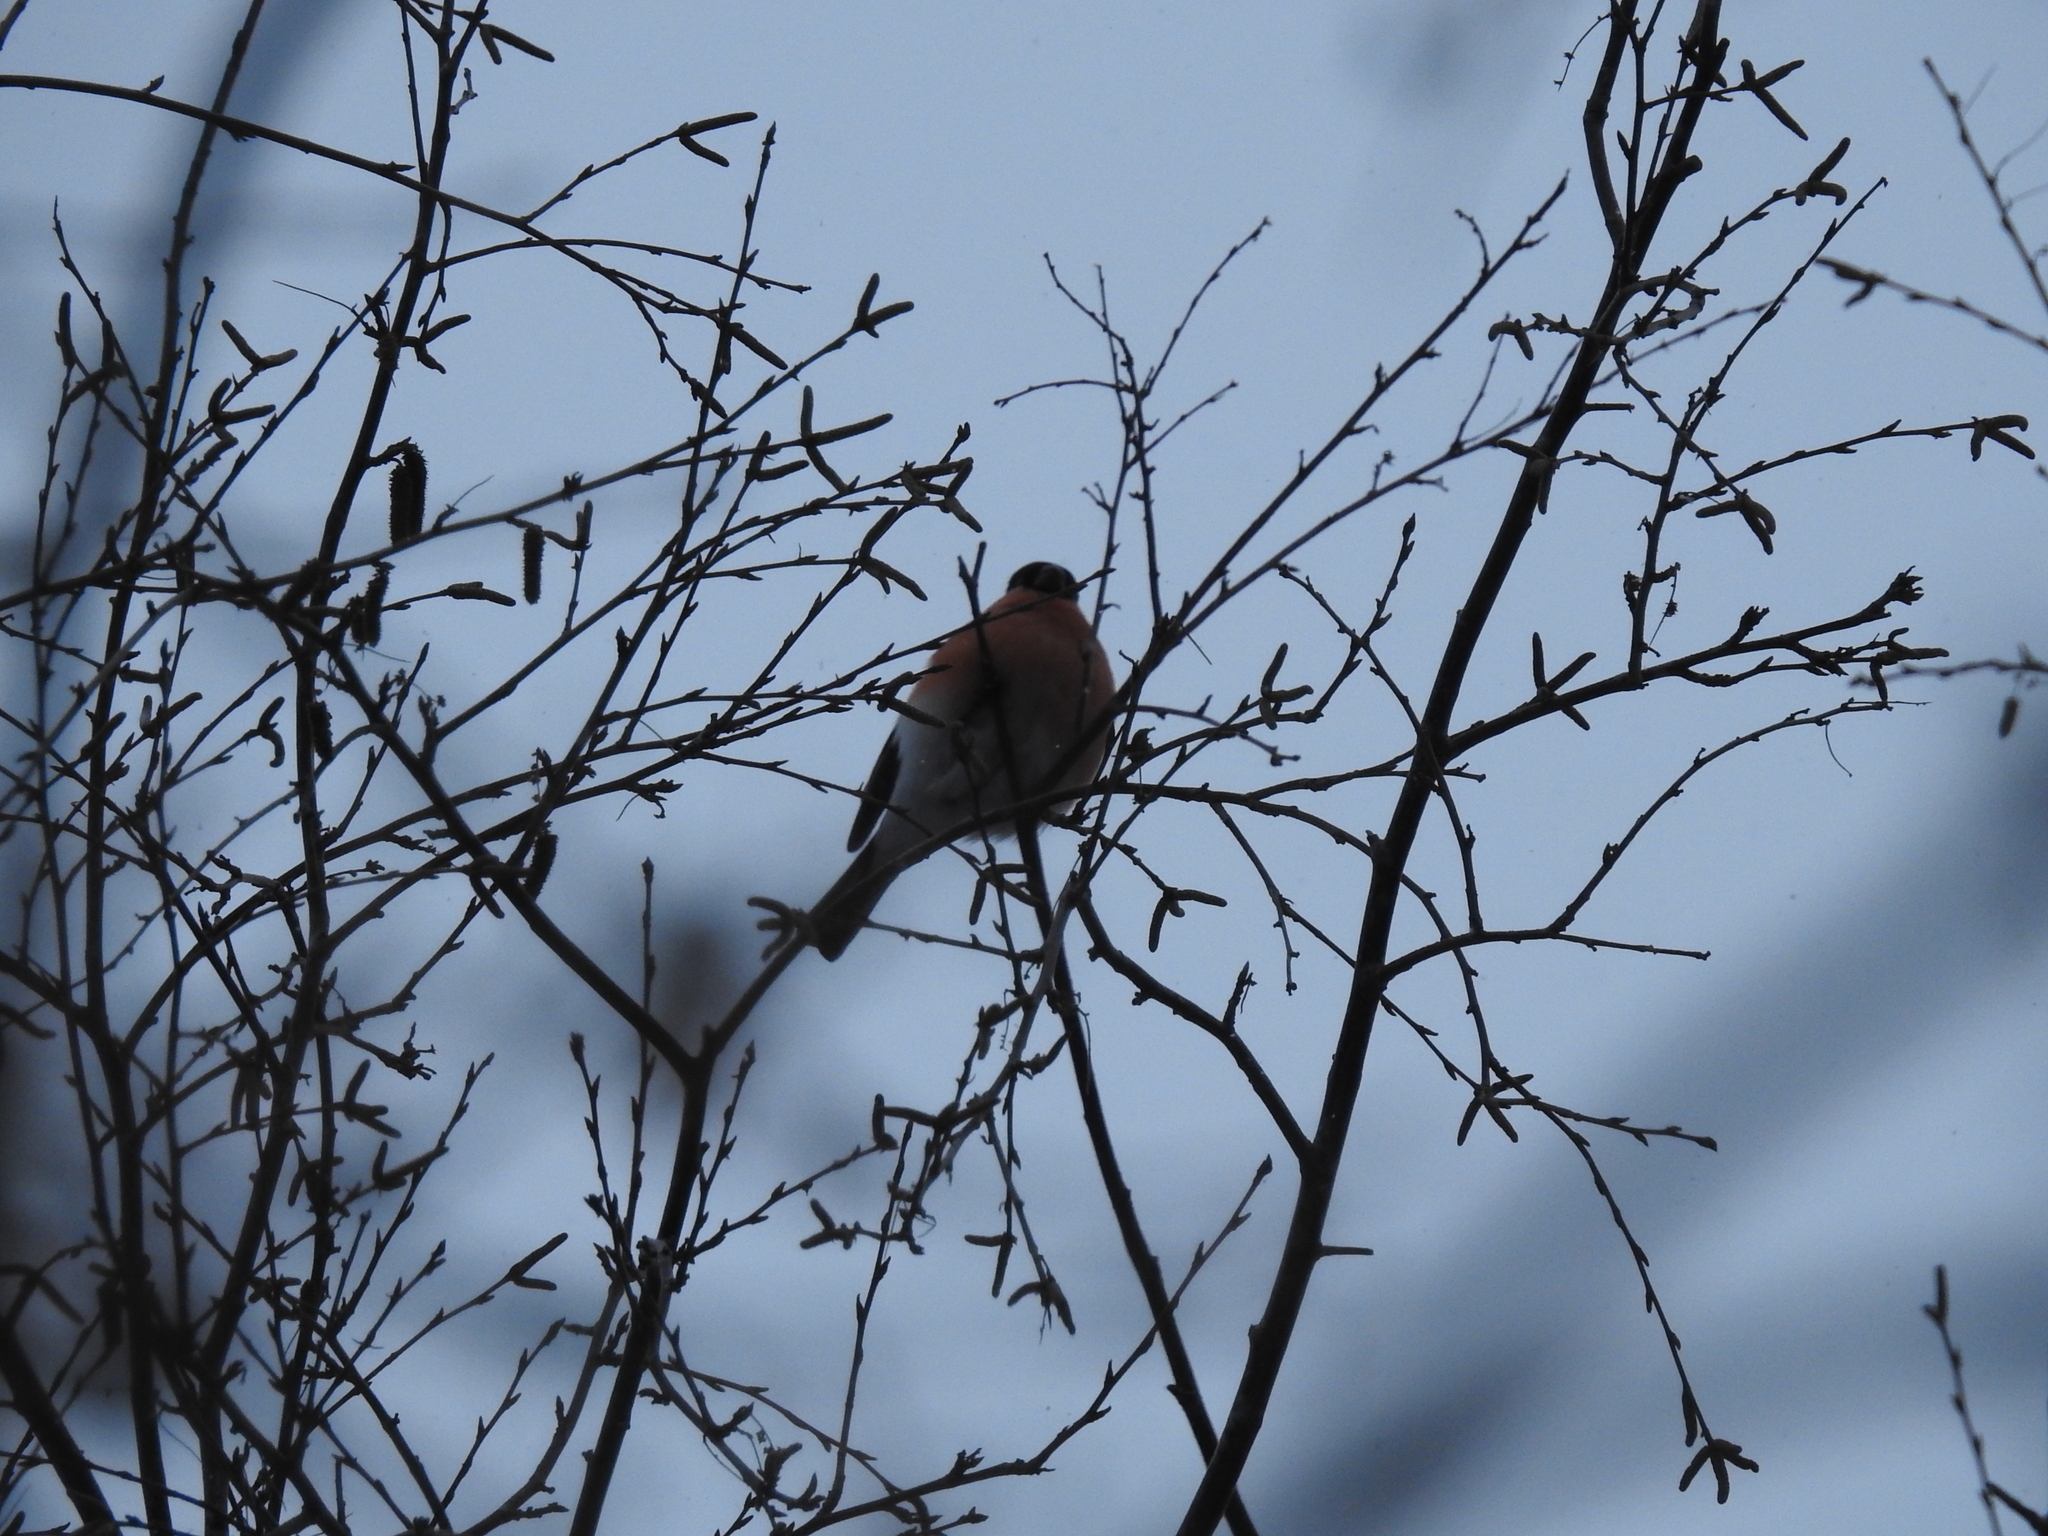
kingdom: Animalia
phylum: Chordata
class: Aves
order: Passeriformes
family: Fringillidae
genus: Pyrrhula
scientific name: Pyrrhula pyrrhula
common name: Eurasian bullfinch
